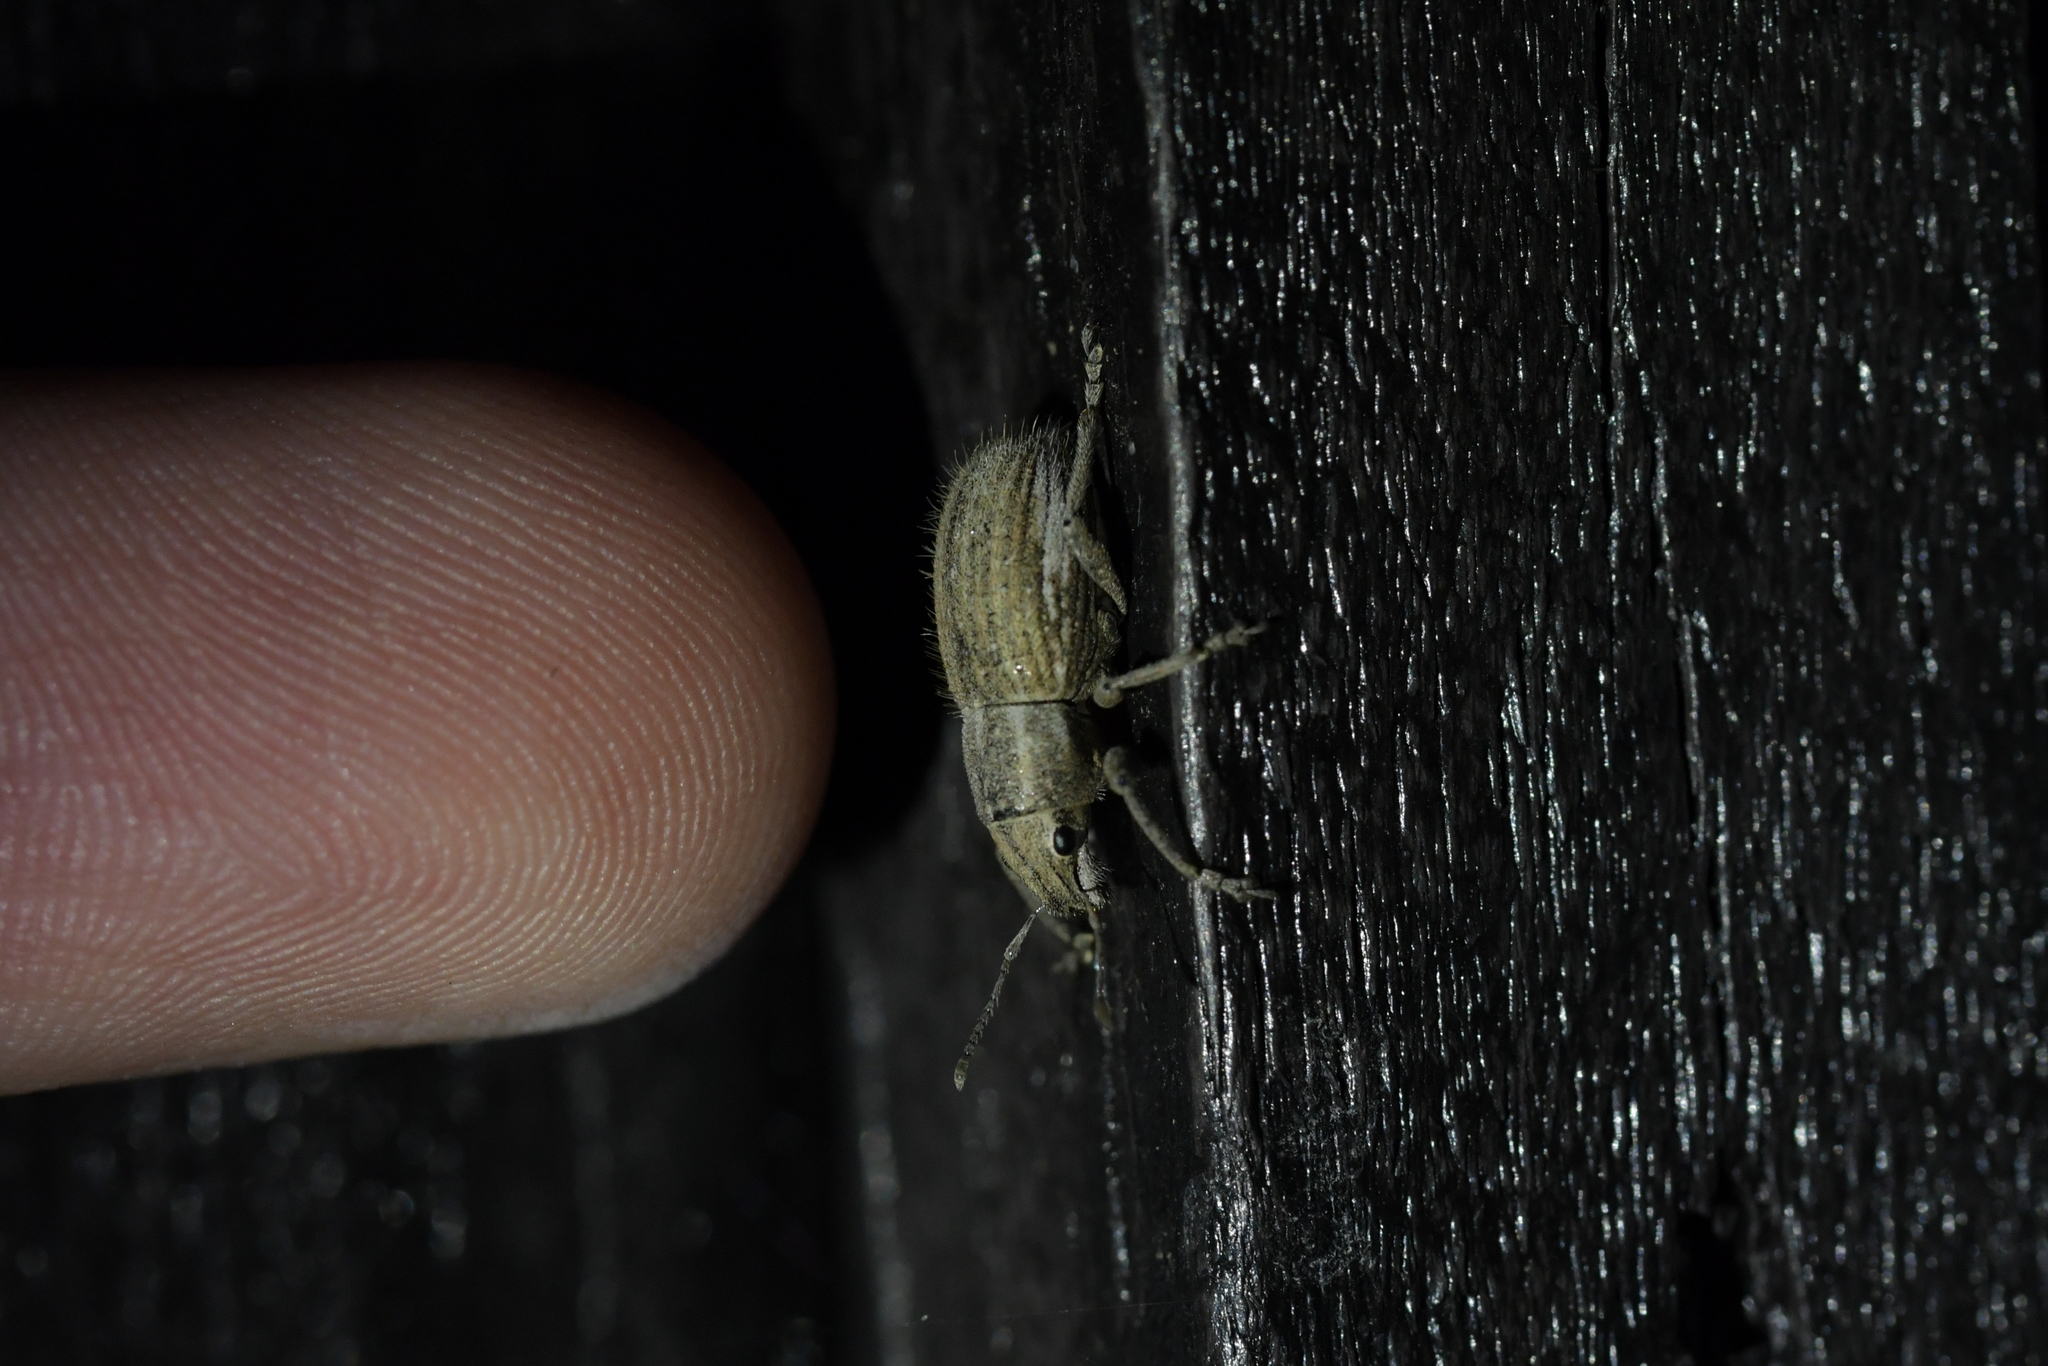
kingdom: Animalia
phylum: Arthropoda
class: Insecta
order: Coleoptera
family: Curculionidae
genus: Naupactus
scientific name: Naupactus leucoloma
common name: Whitefringed beetle
